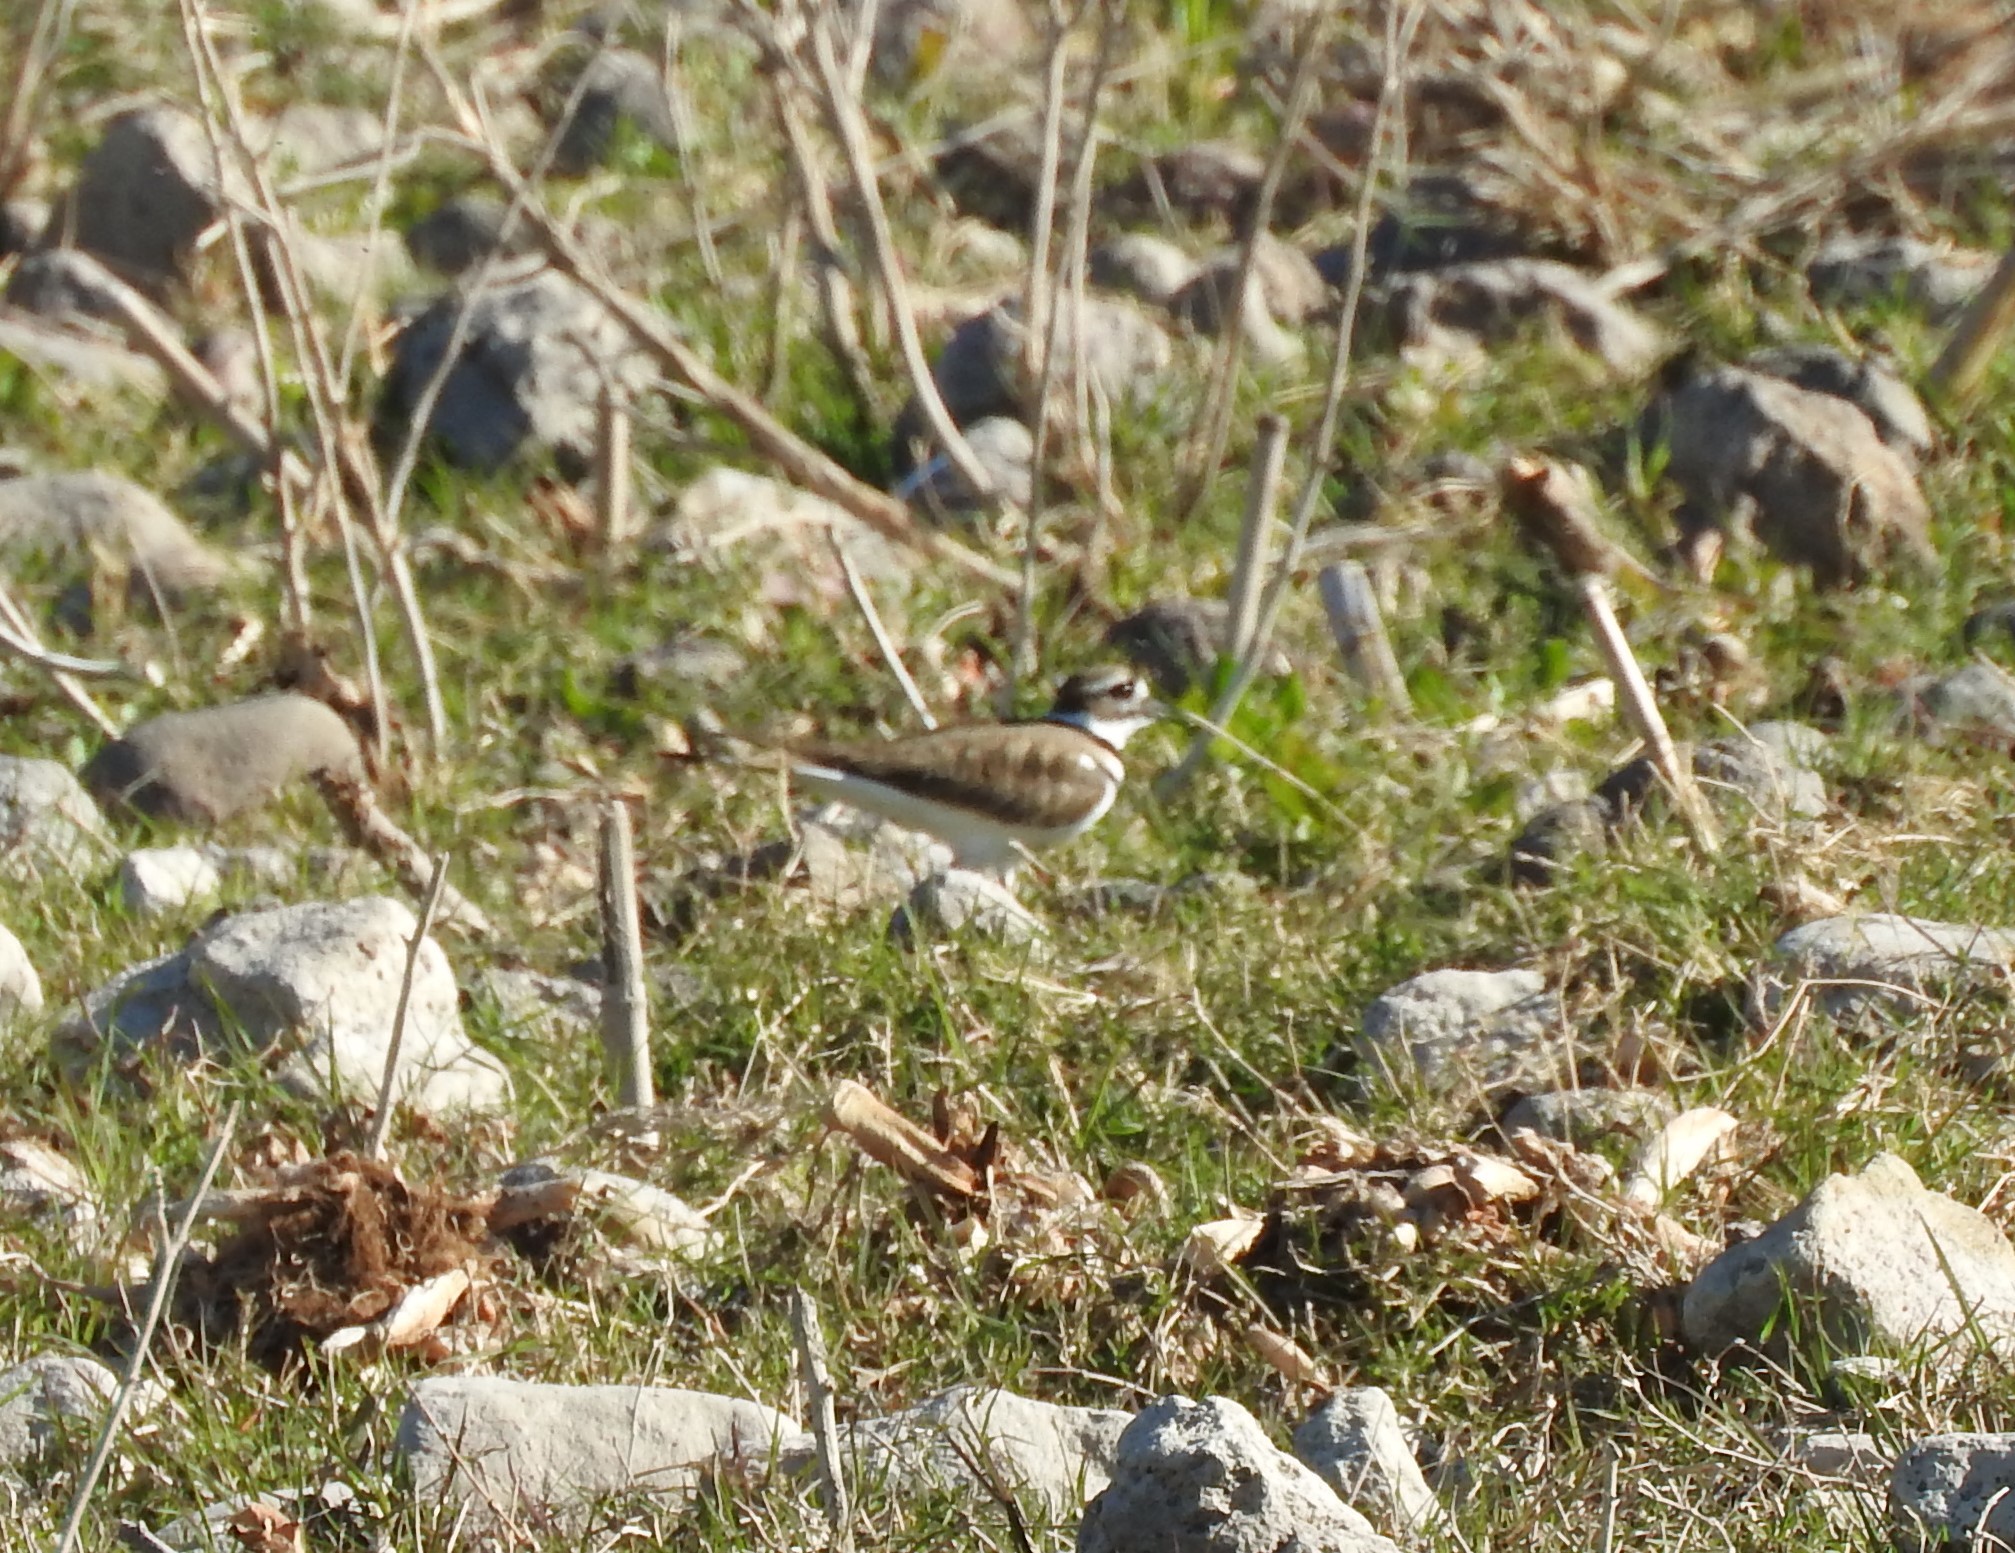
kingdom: Animalia
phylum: Chordata
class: Aves
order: Charadriiformes
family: Charadriidae
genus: Charadrius
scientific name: Charadrius vociferus
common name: Killdeer
